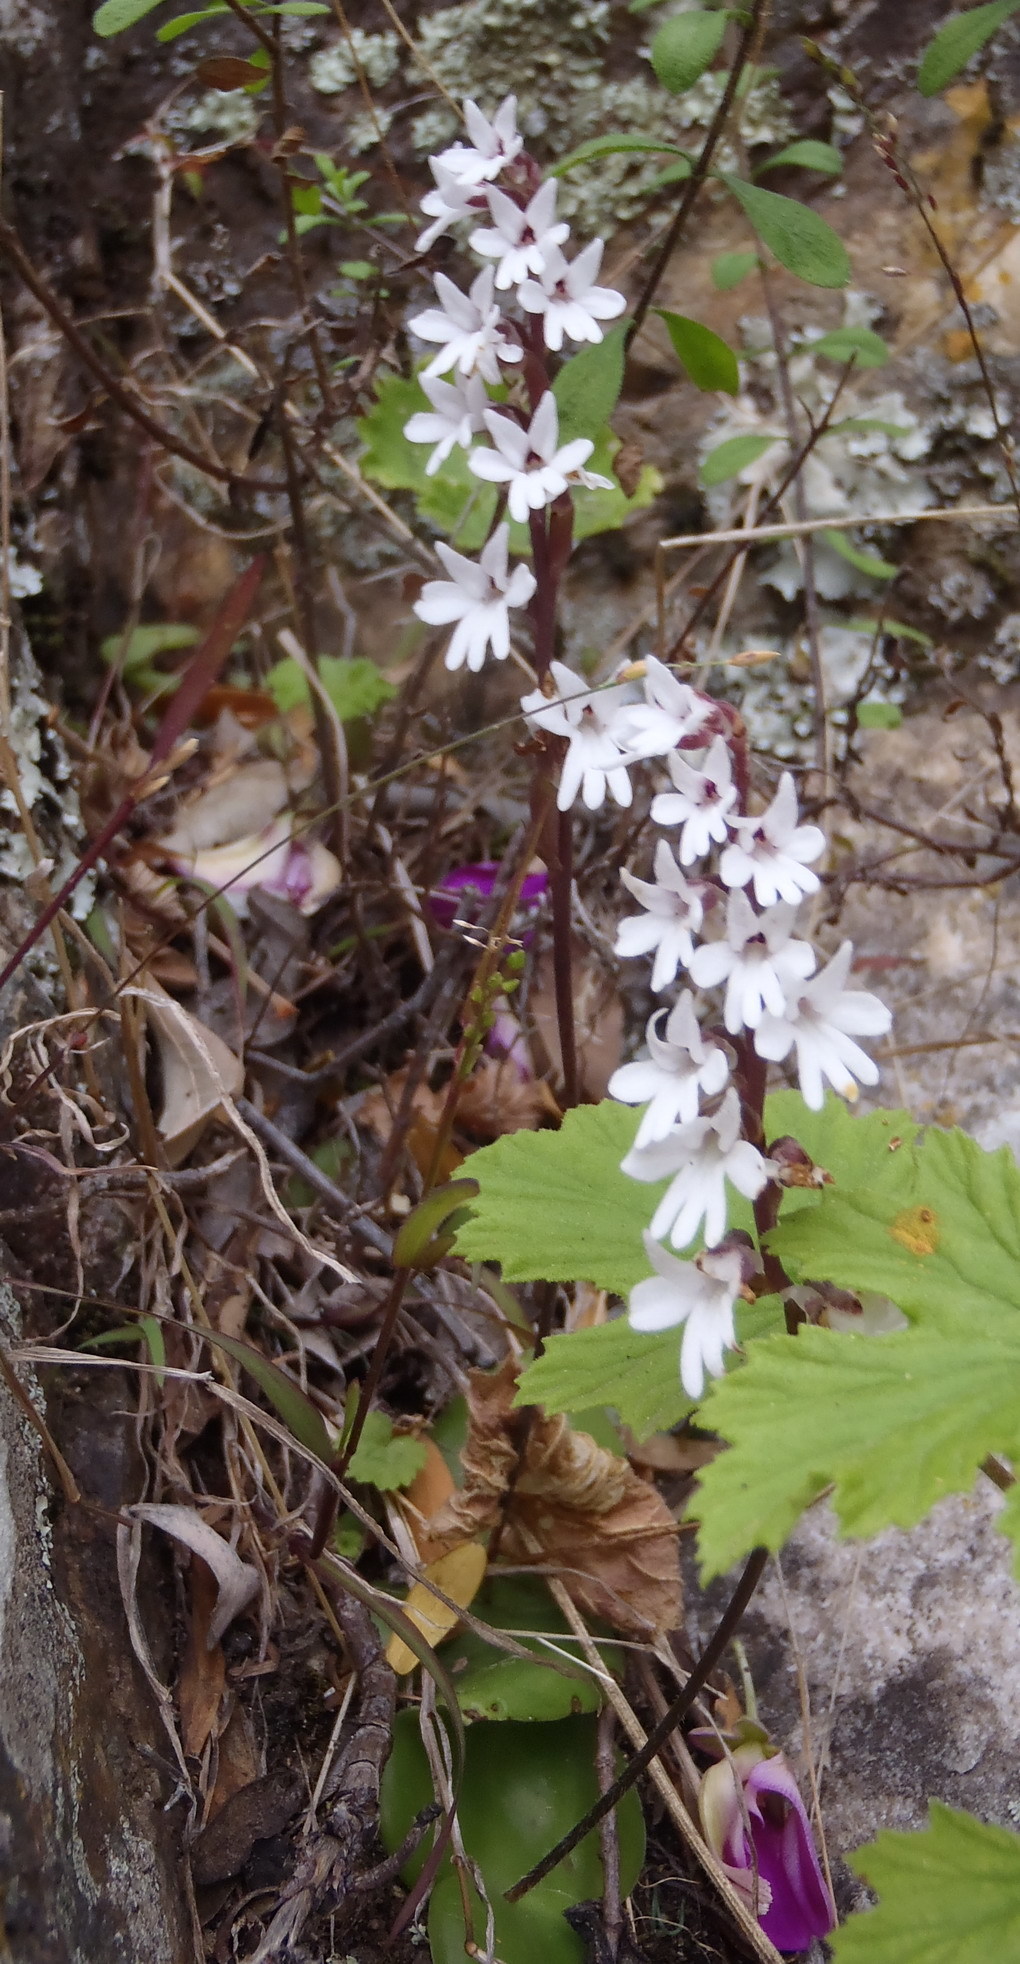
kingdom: Plantae
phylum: Tracheophyta
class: Liliopsida
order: Asparagales
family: Orchidaceae
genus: Holothrix
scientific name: Holothrix parviflora
